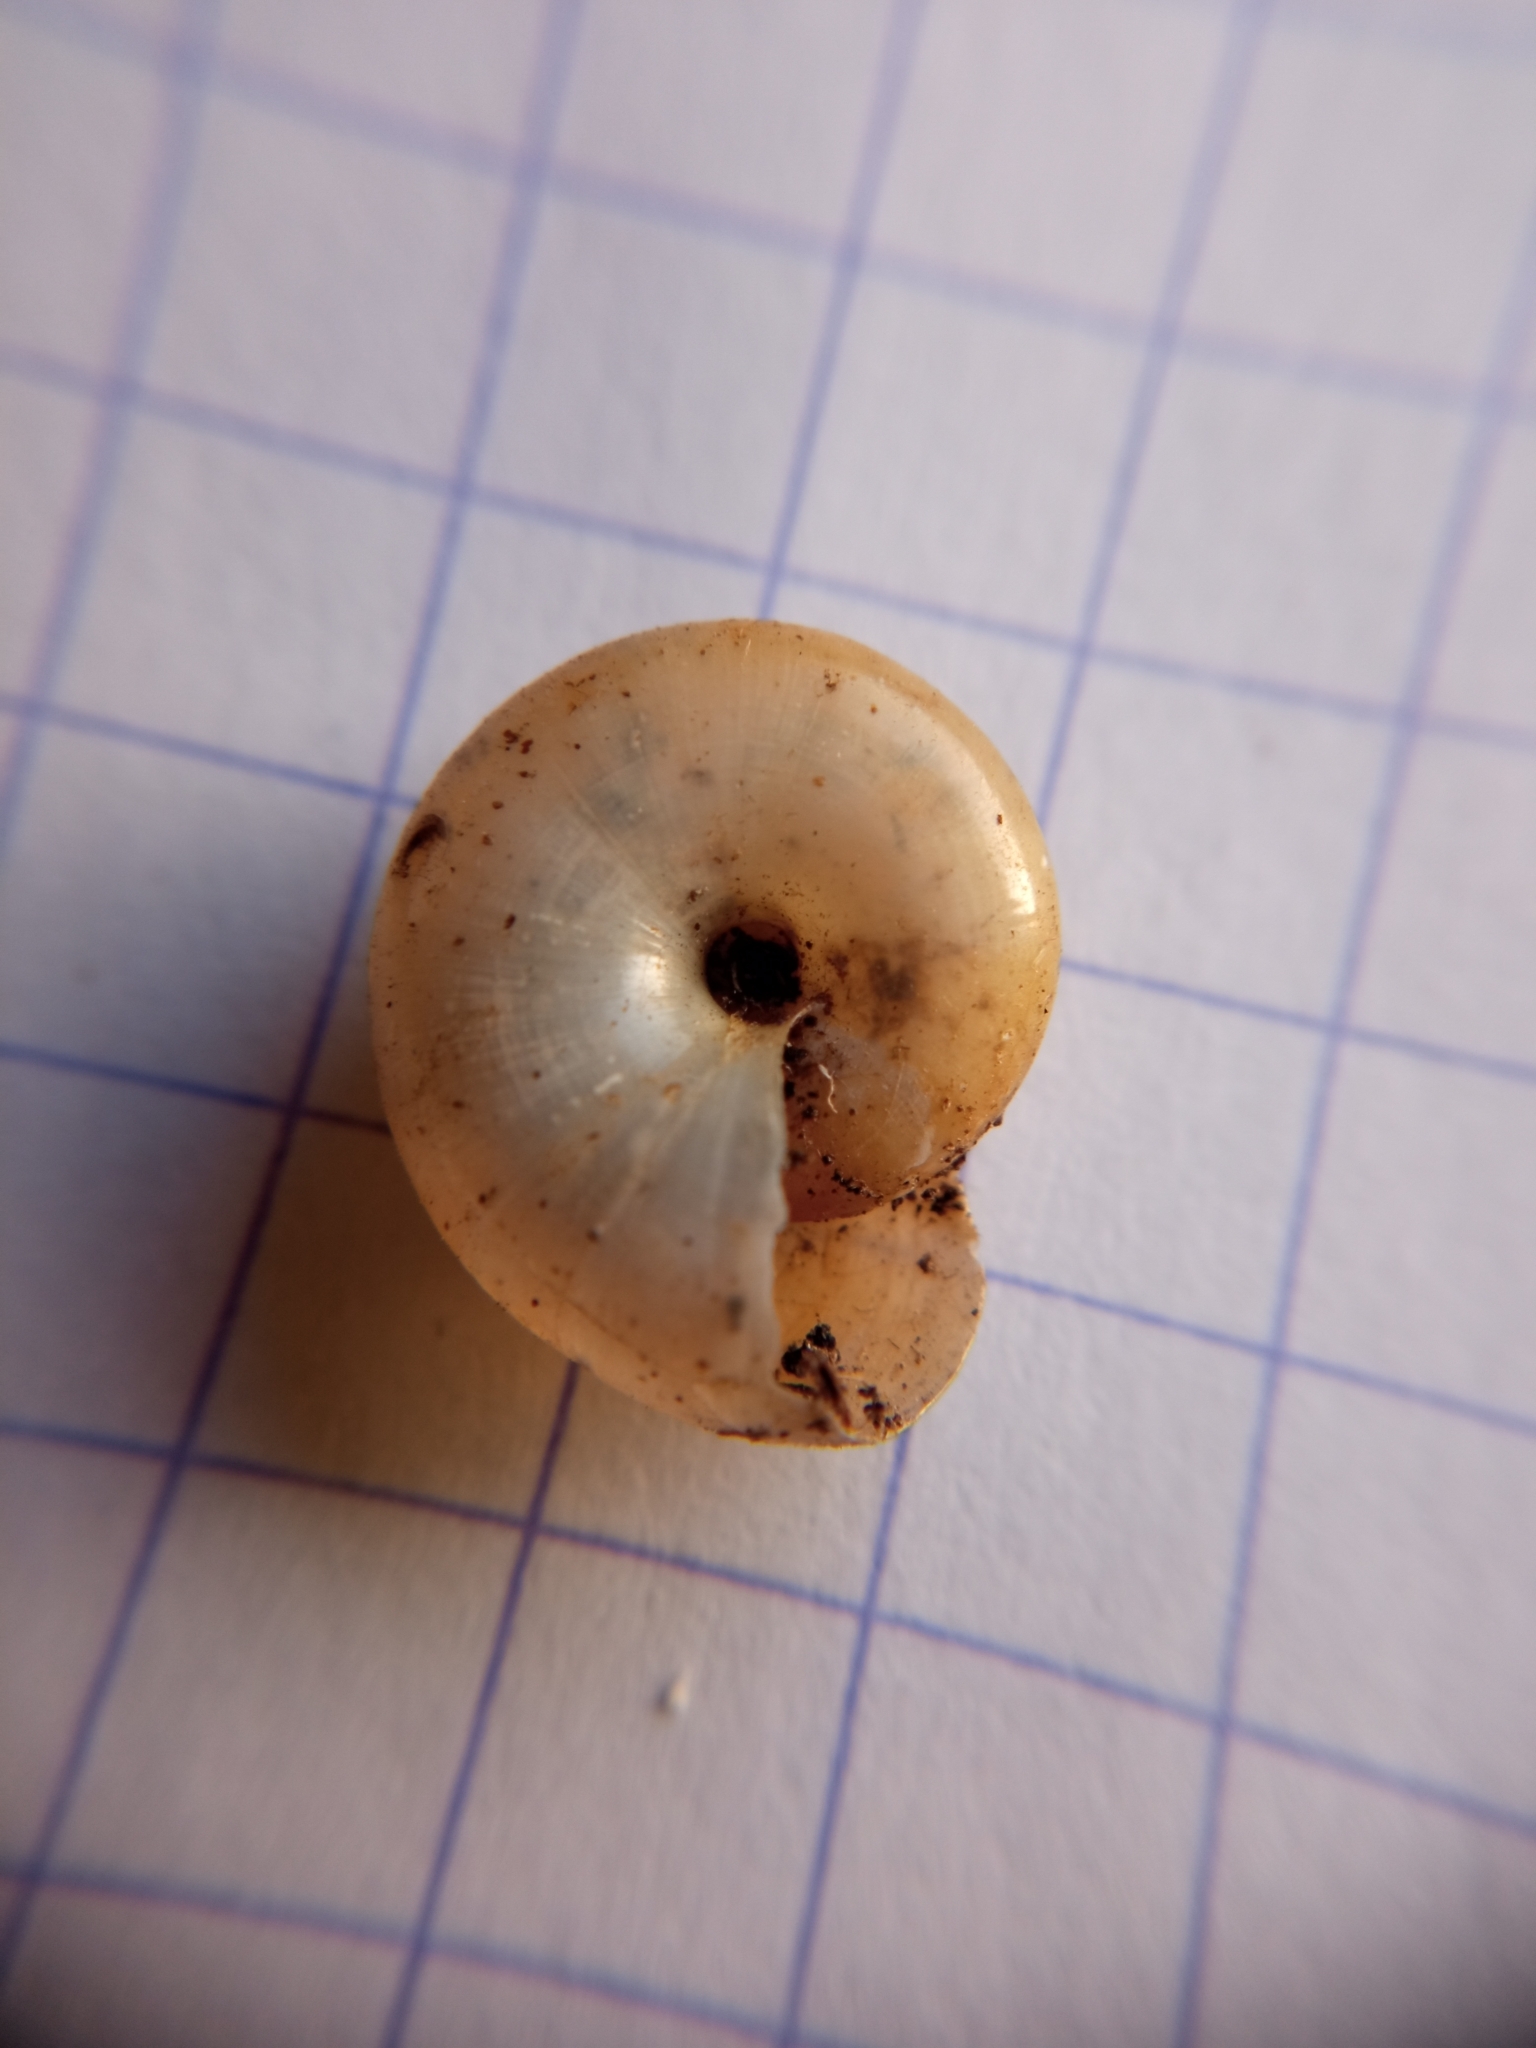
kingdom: Animalia
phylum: Mollusca
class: Gastropoda
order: Stylommatophora
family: Oxychilidae
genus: Oxychilus
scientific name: Oxychilus draparnaudi
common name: Draparnaud's glass snail
